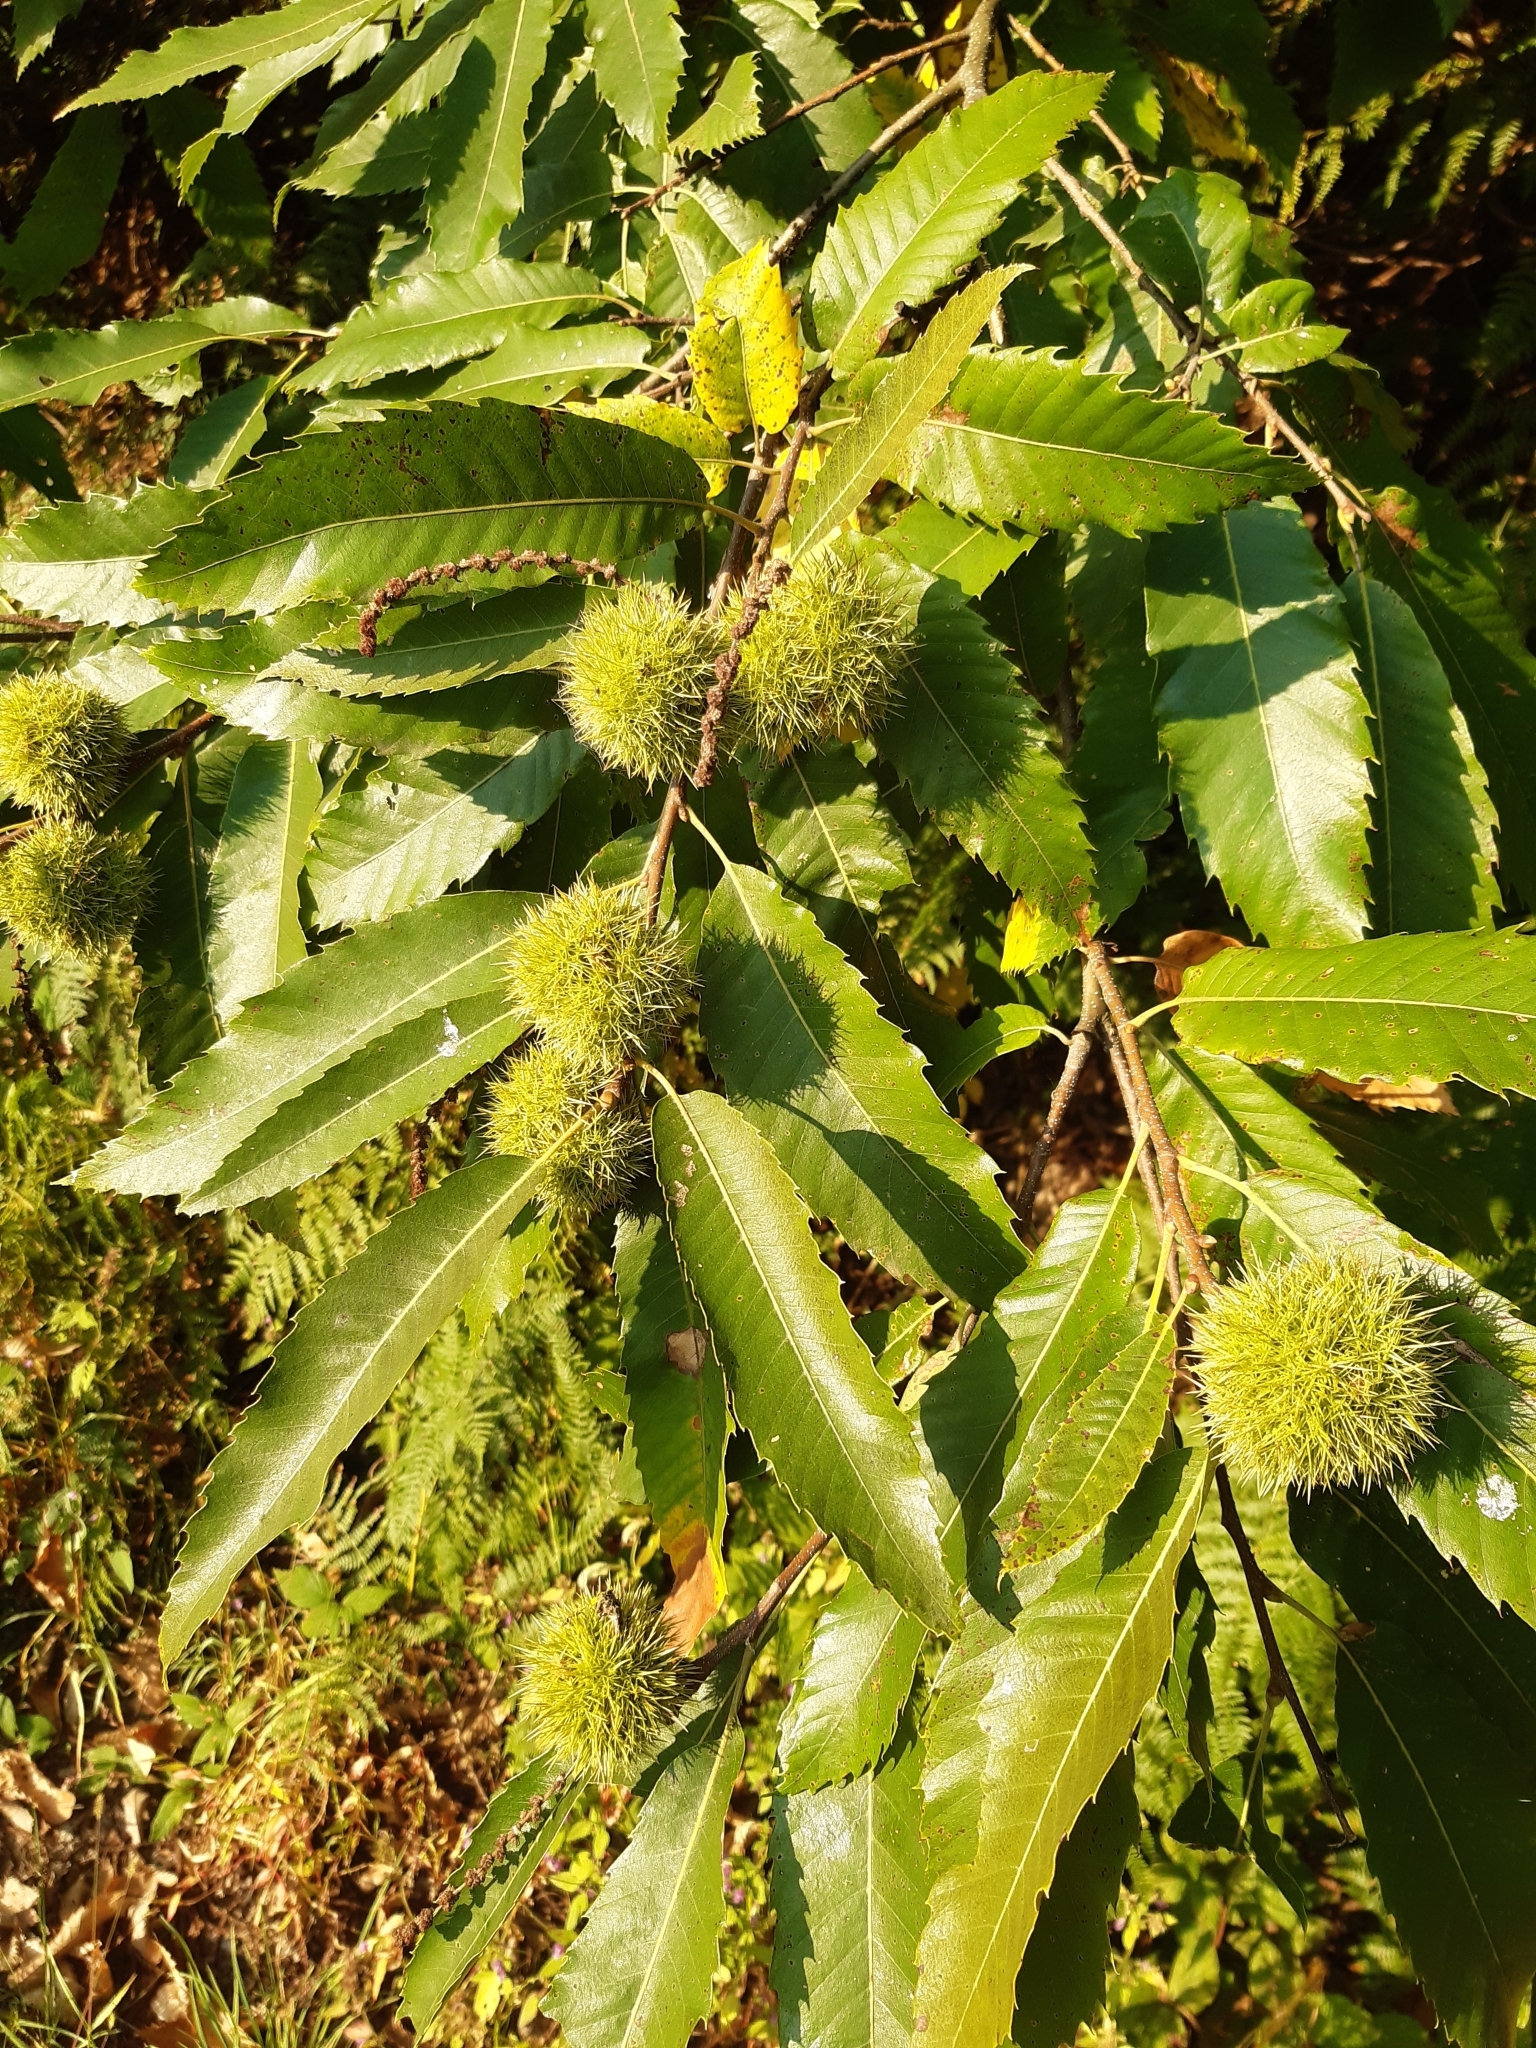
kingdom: Plantae
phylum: Tracheophyta
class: Magnoliopsida
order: Fagales
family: Fagaceae
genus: Castanea
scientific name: Castanea sativa
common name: Sweet chestnut
